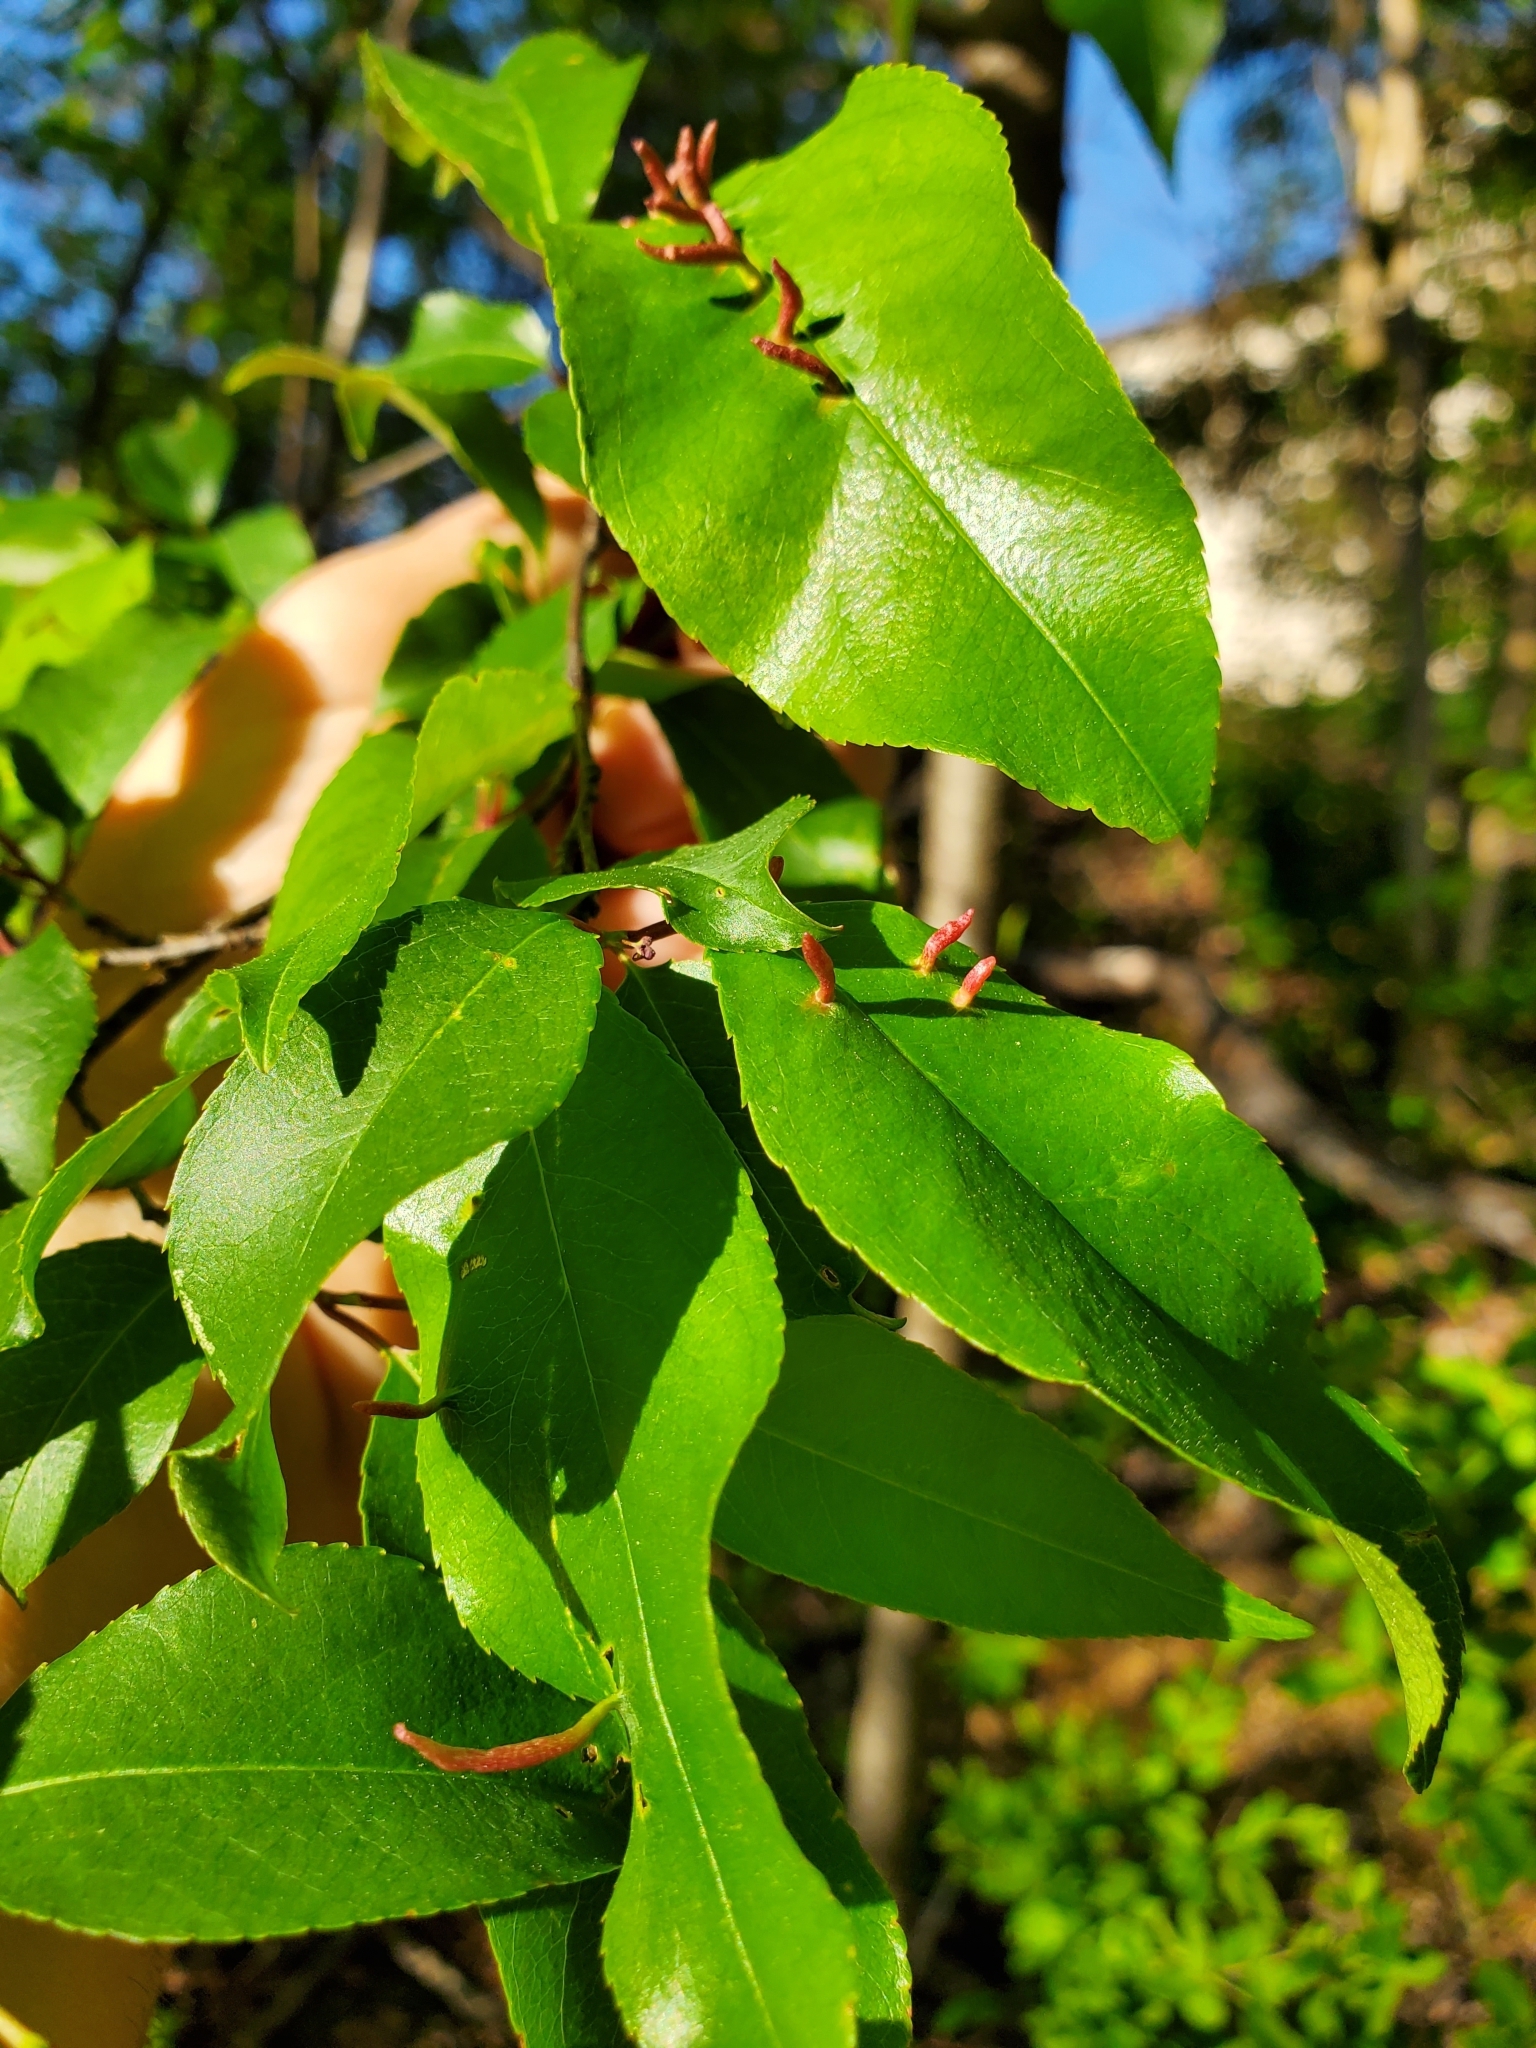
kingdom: Animalia
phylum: Arthropoda
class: Arachnida
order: Trombidiformes
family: Eriophyidae
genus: Eriophyes
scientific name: Eriophyes
